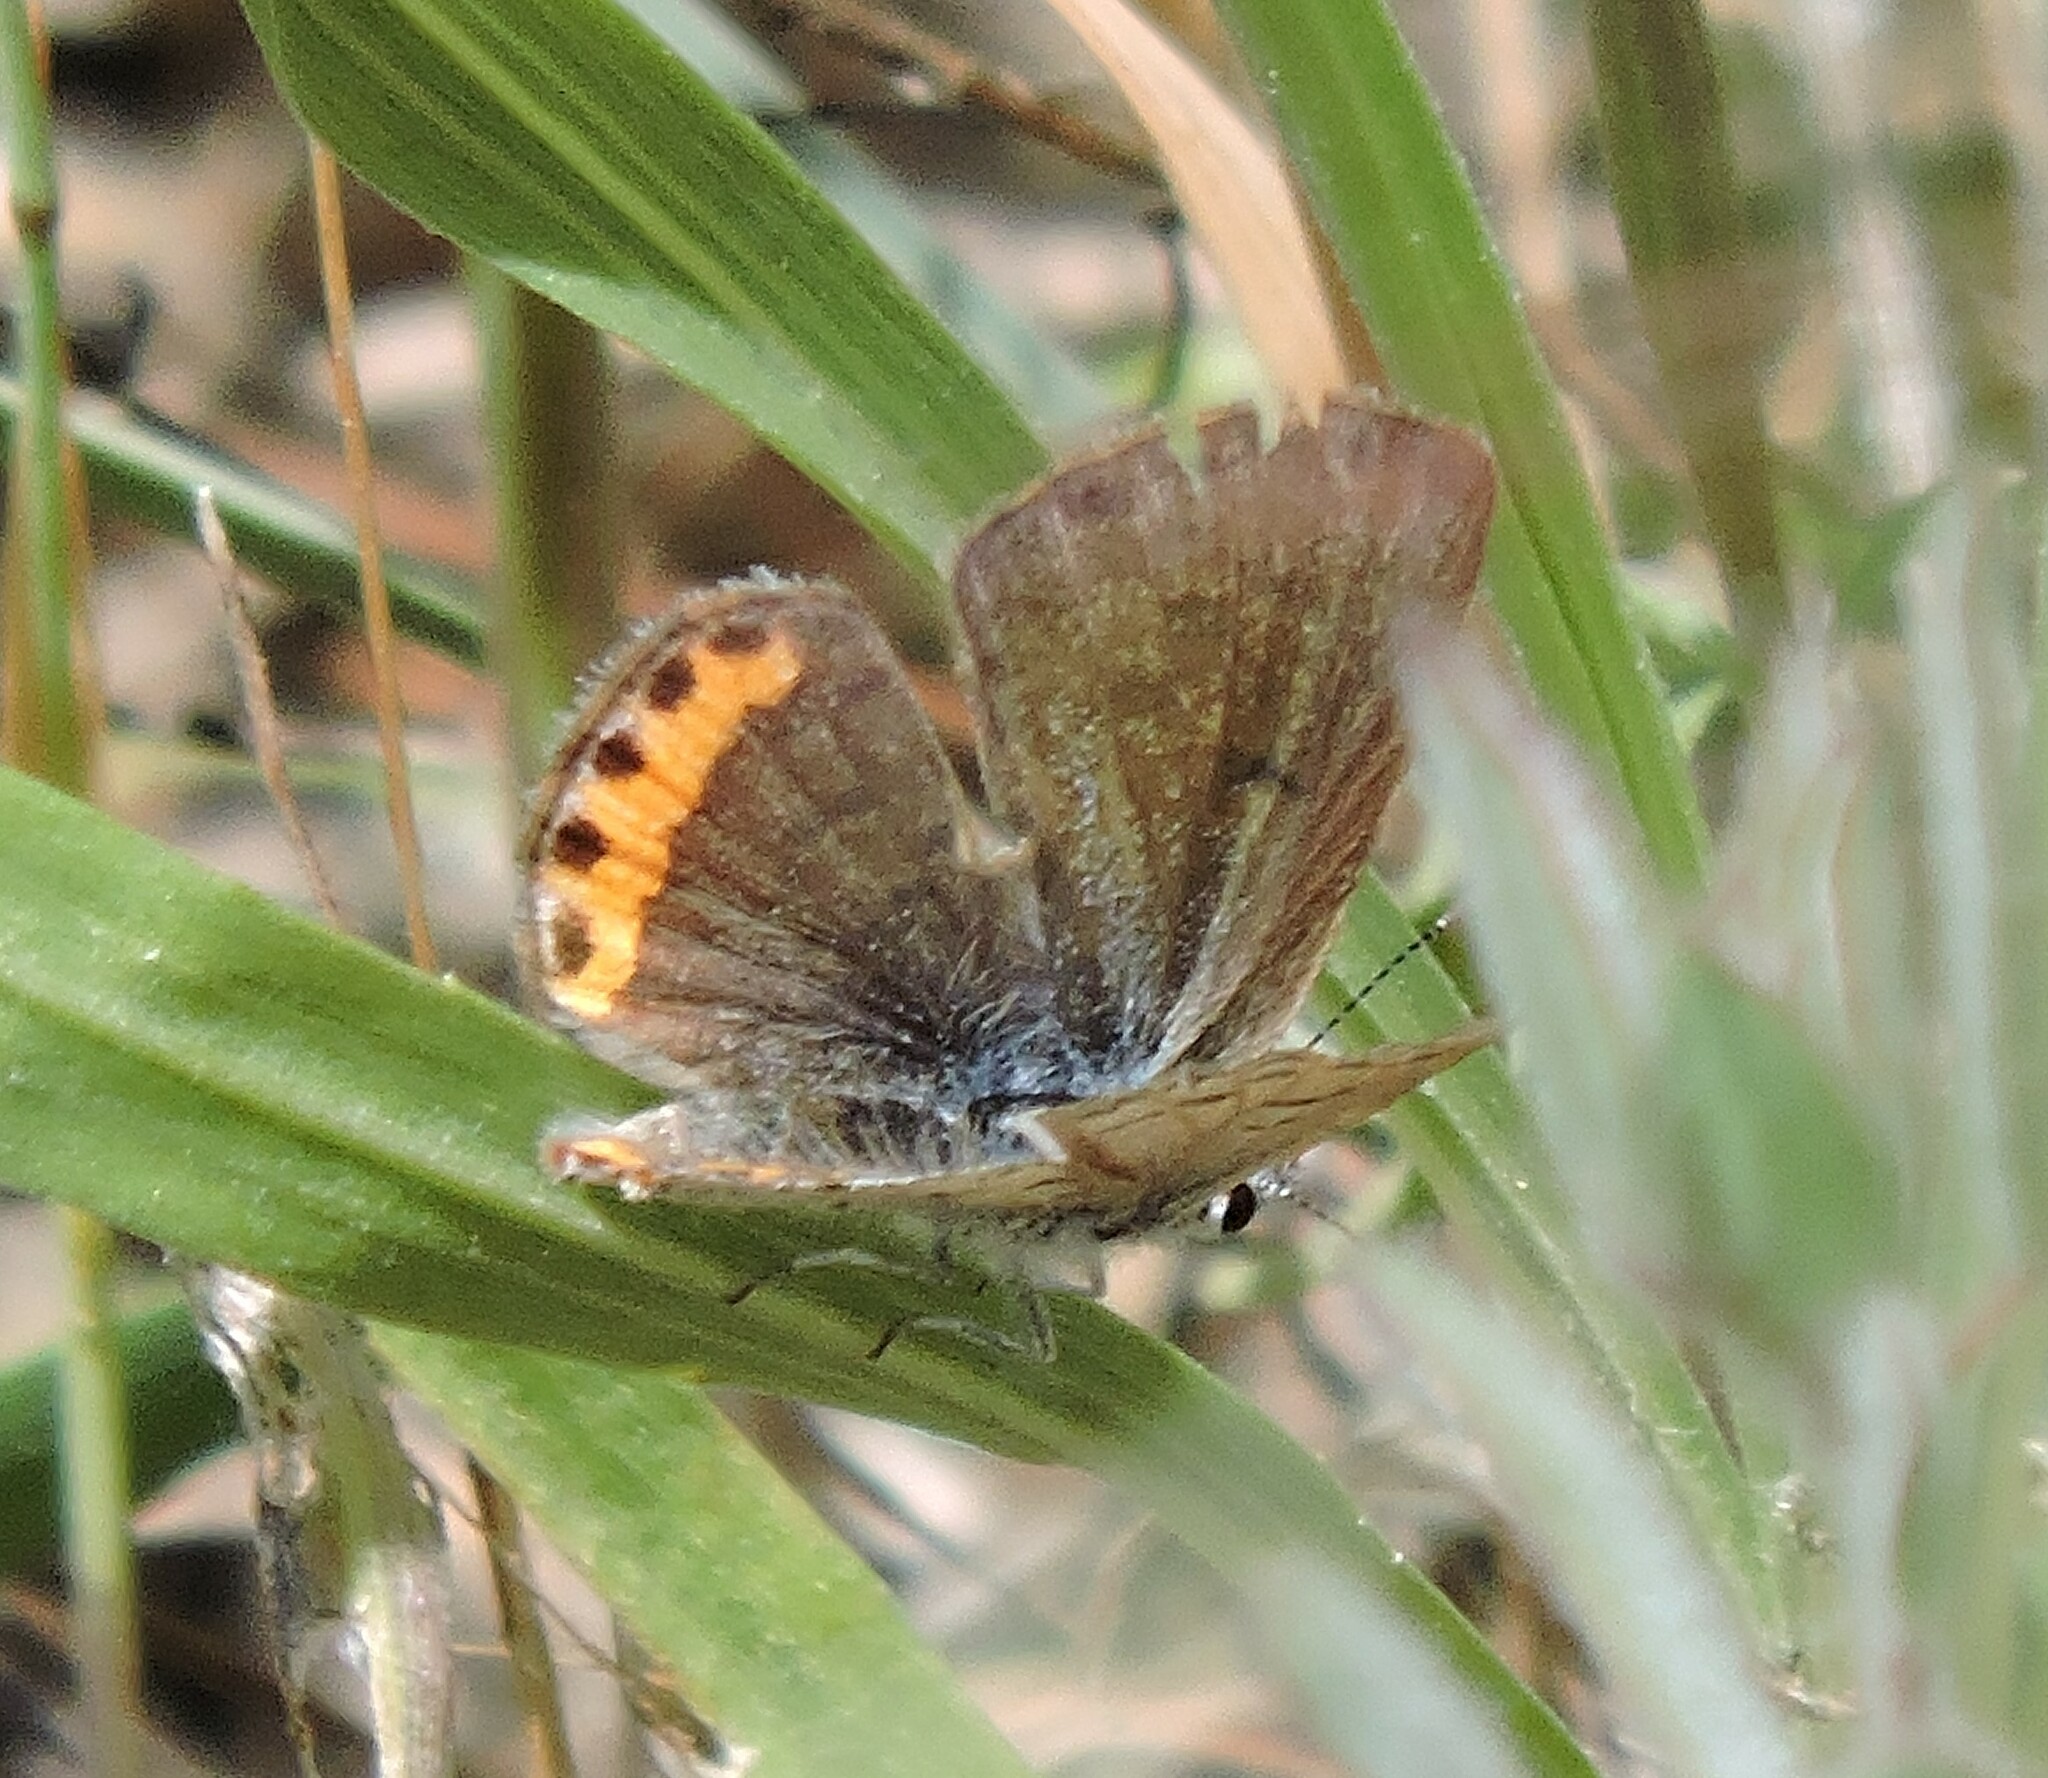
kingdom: Animalia
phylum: Arthropoda
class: Insecta
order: Lepidoptera
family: Lycaenidae
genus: Icaricia
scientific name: Icaricia acmon
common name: Acmon blue
